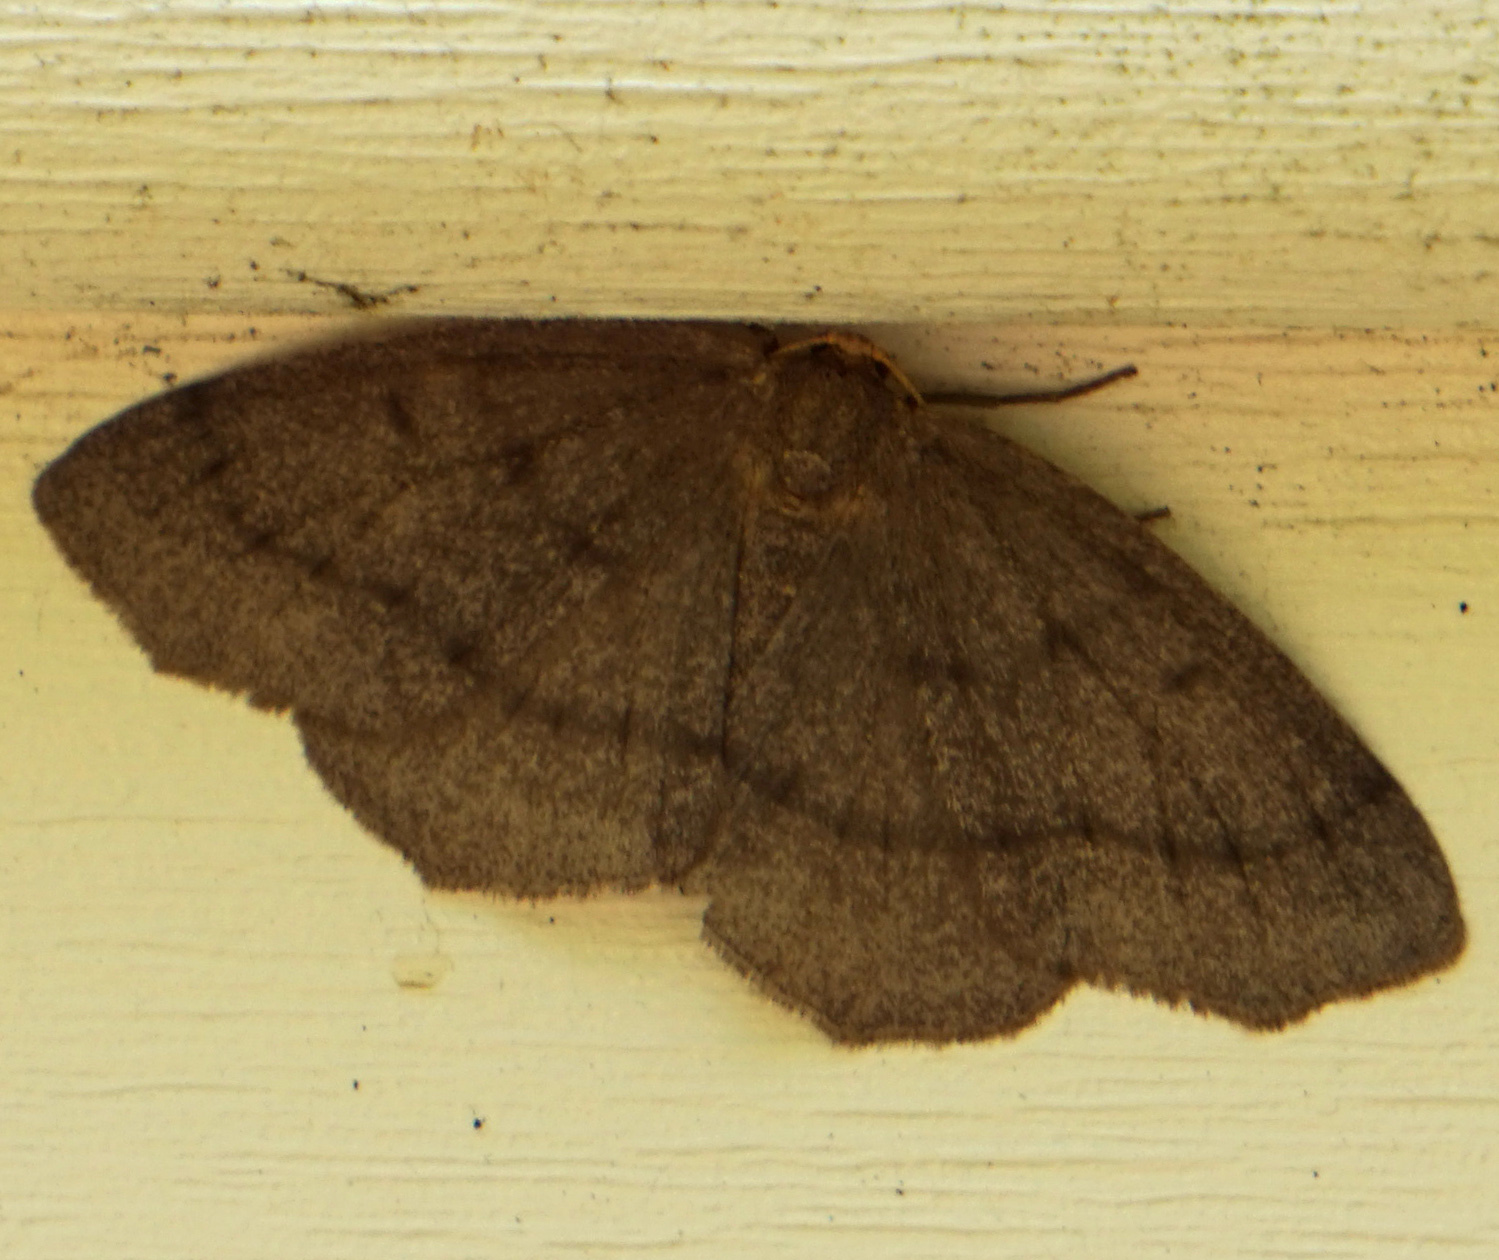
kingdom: Animalia
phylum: Arthropoda
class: Insecta
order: Lepidoptera
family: Geometridae
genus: Lambdina
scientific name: Lambdina fervidaria
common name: Curve-lined looper moth
